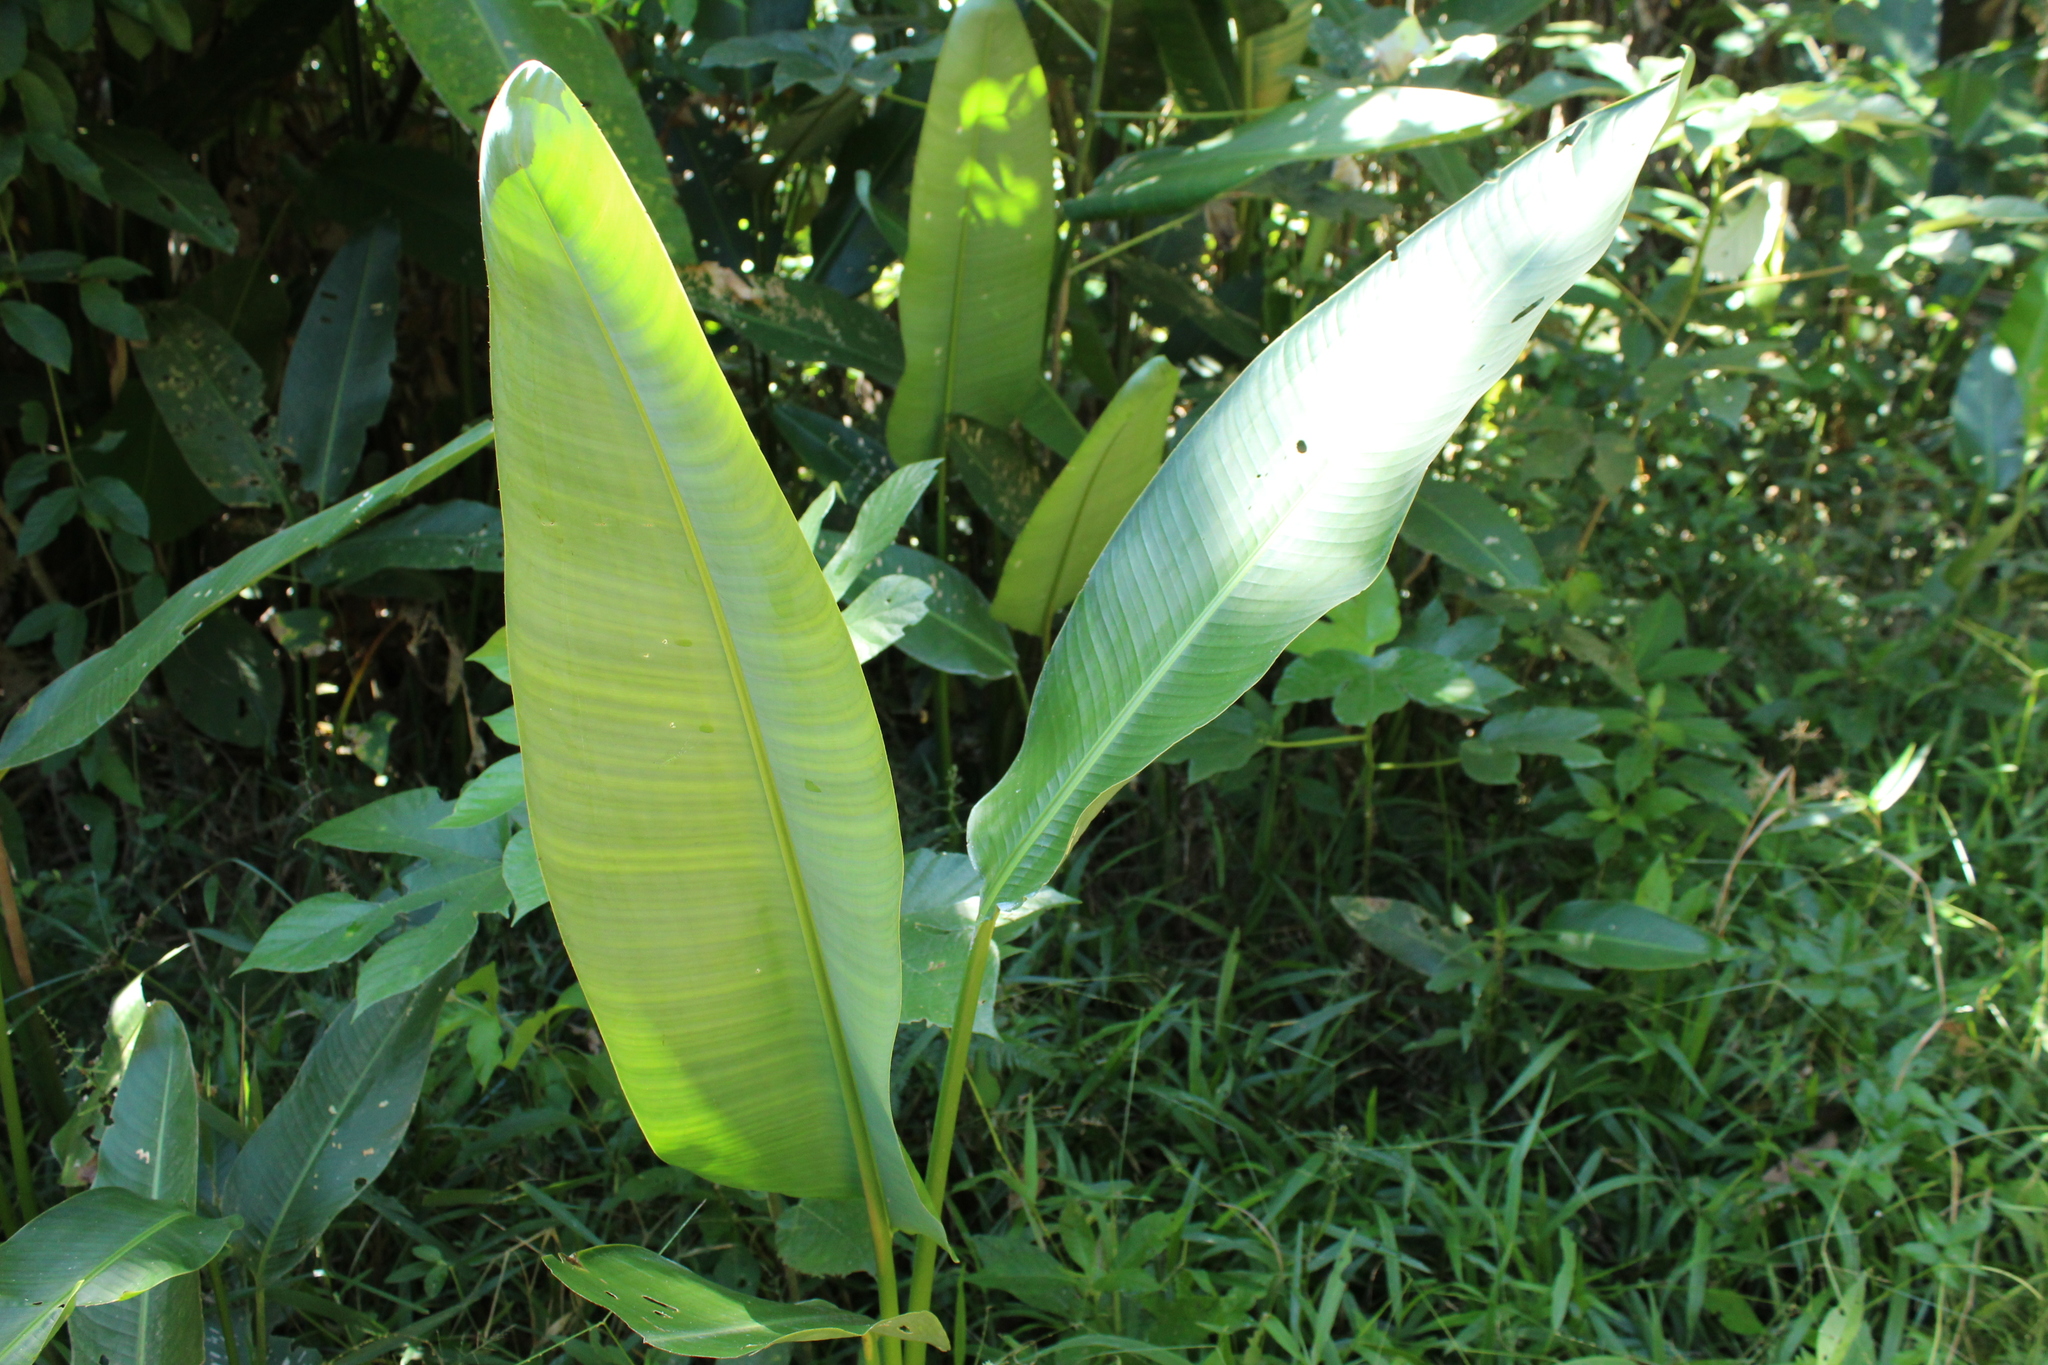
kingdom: Plantae
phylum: Tracheophyta
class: Liliopsida
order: Zingiberales
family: Heliconiaceae
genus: Heliconia
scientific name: Heliconia marginata
